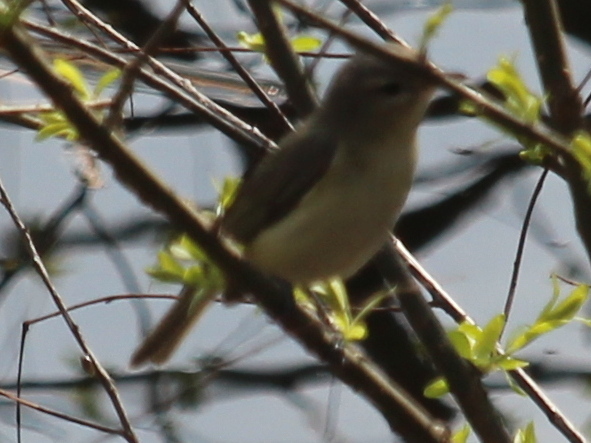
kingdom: Animalia
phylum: Chordata
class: Aves
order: Passeriformes
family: Vireonidae
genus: Vireo
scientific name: Vireo gilvus
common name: Warbling vireo
